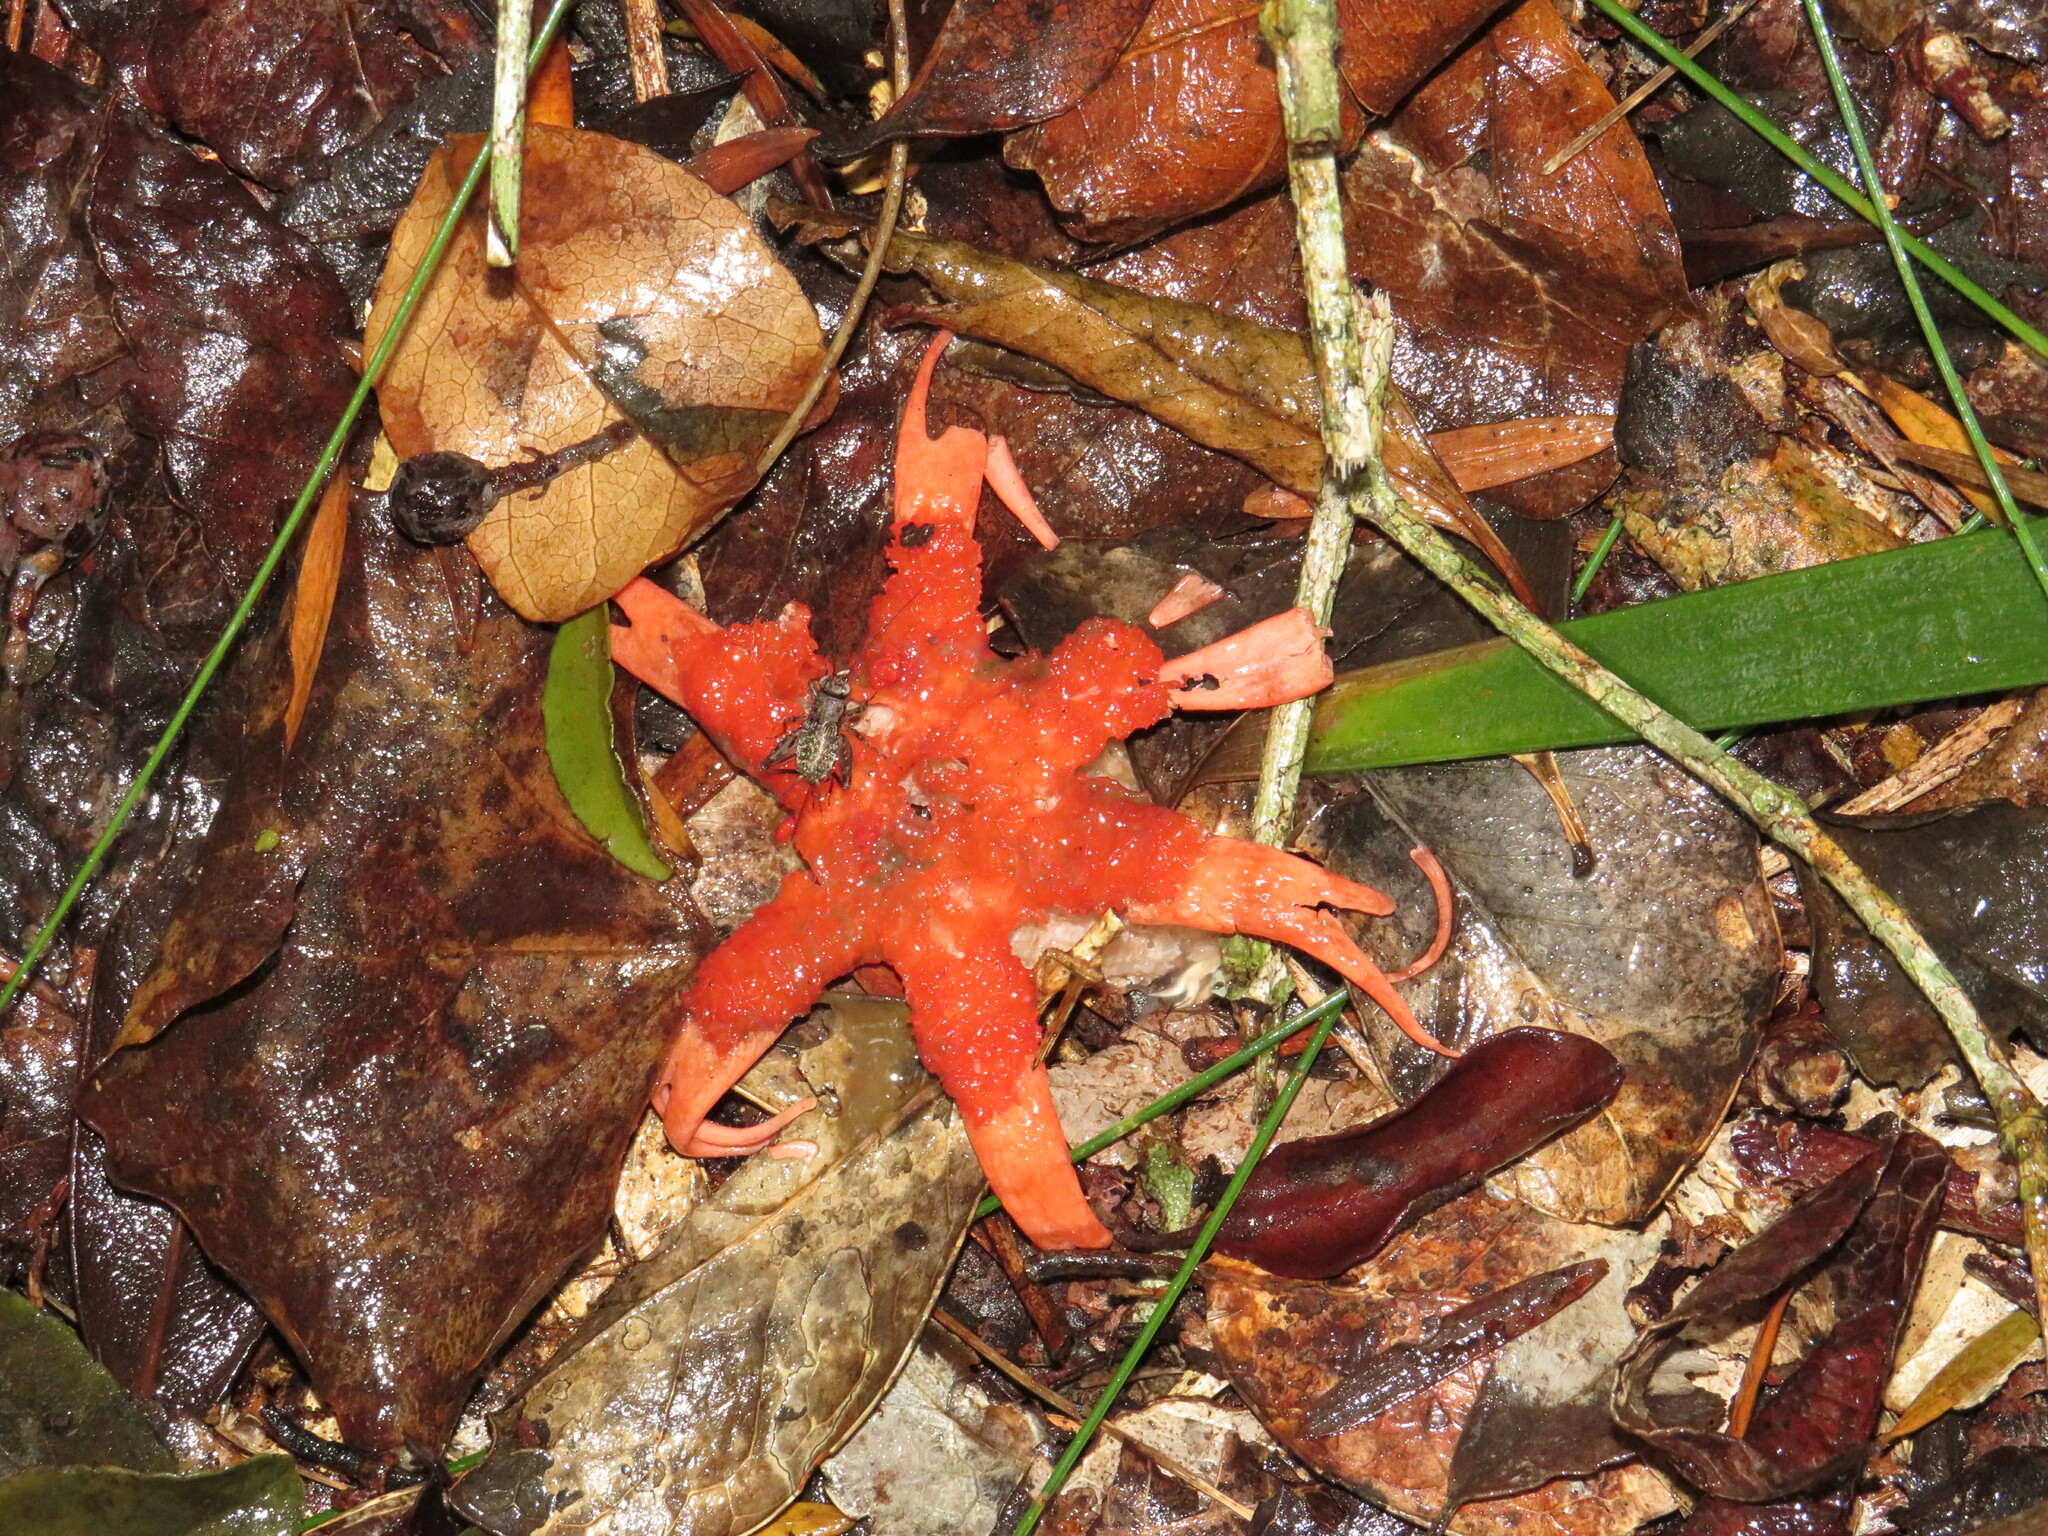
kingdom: Fungi
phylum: Basidiomycota
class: Agaricomycetes
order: Phallales
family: Phallaceae
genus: Aseroe
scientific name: Aseroe rubra
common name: Starfish fungus
